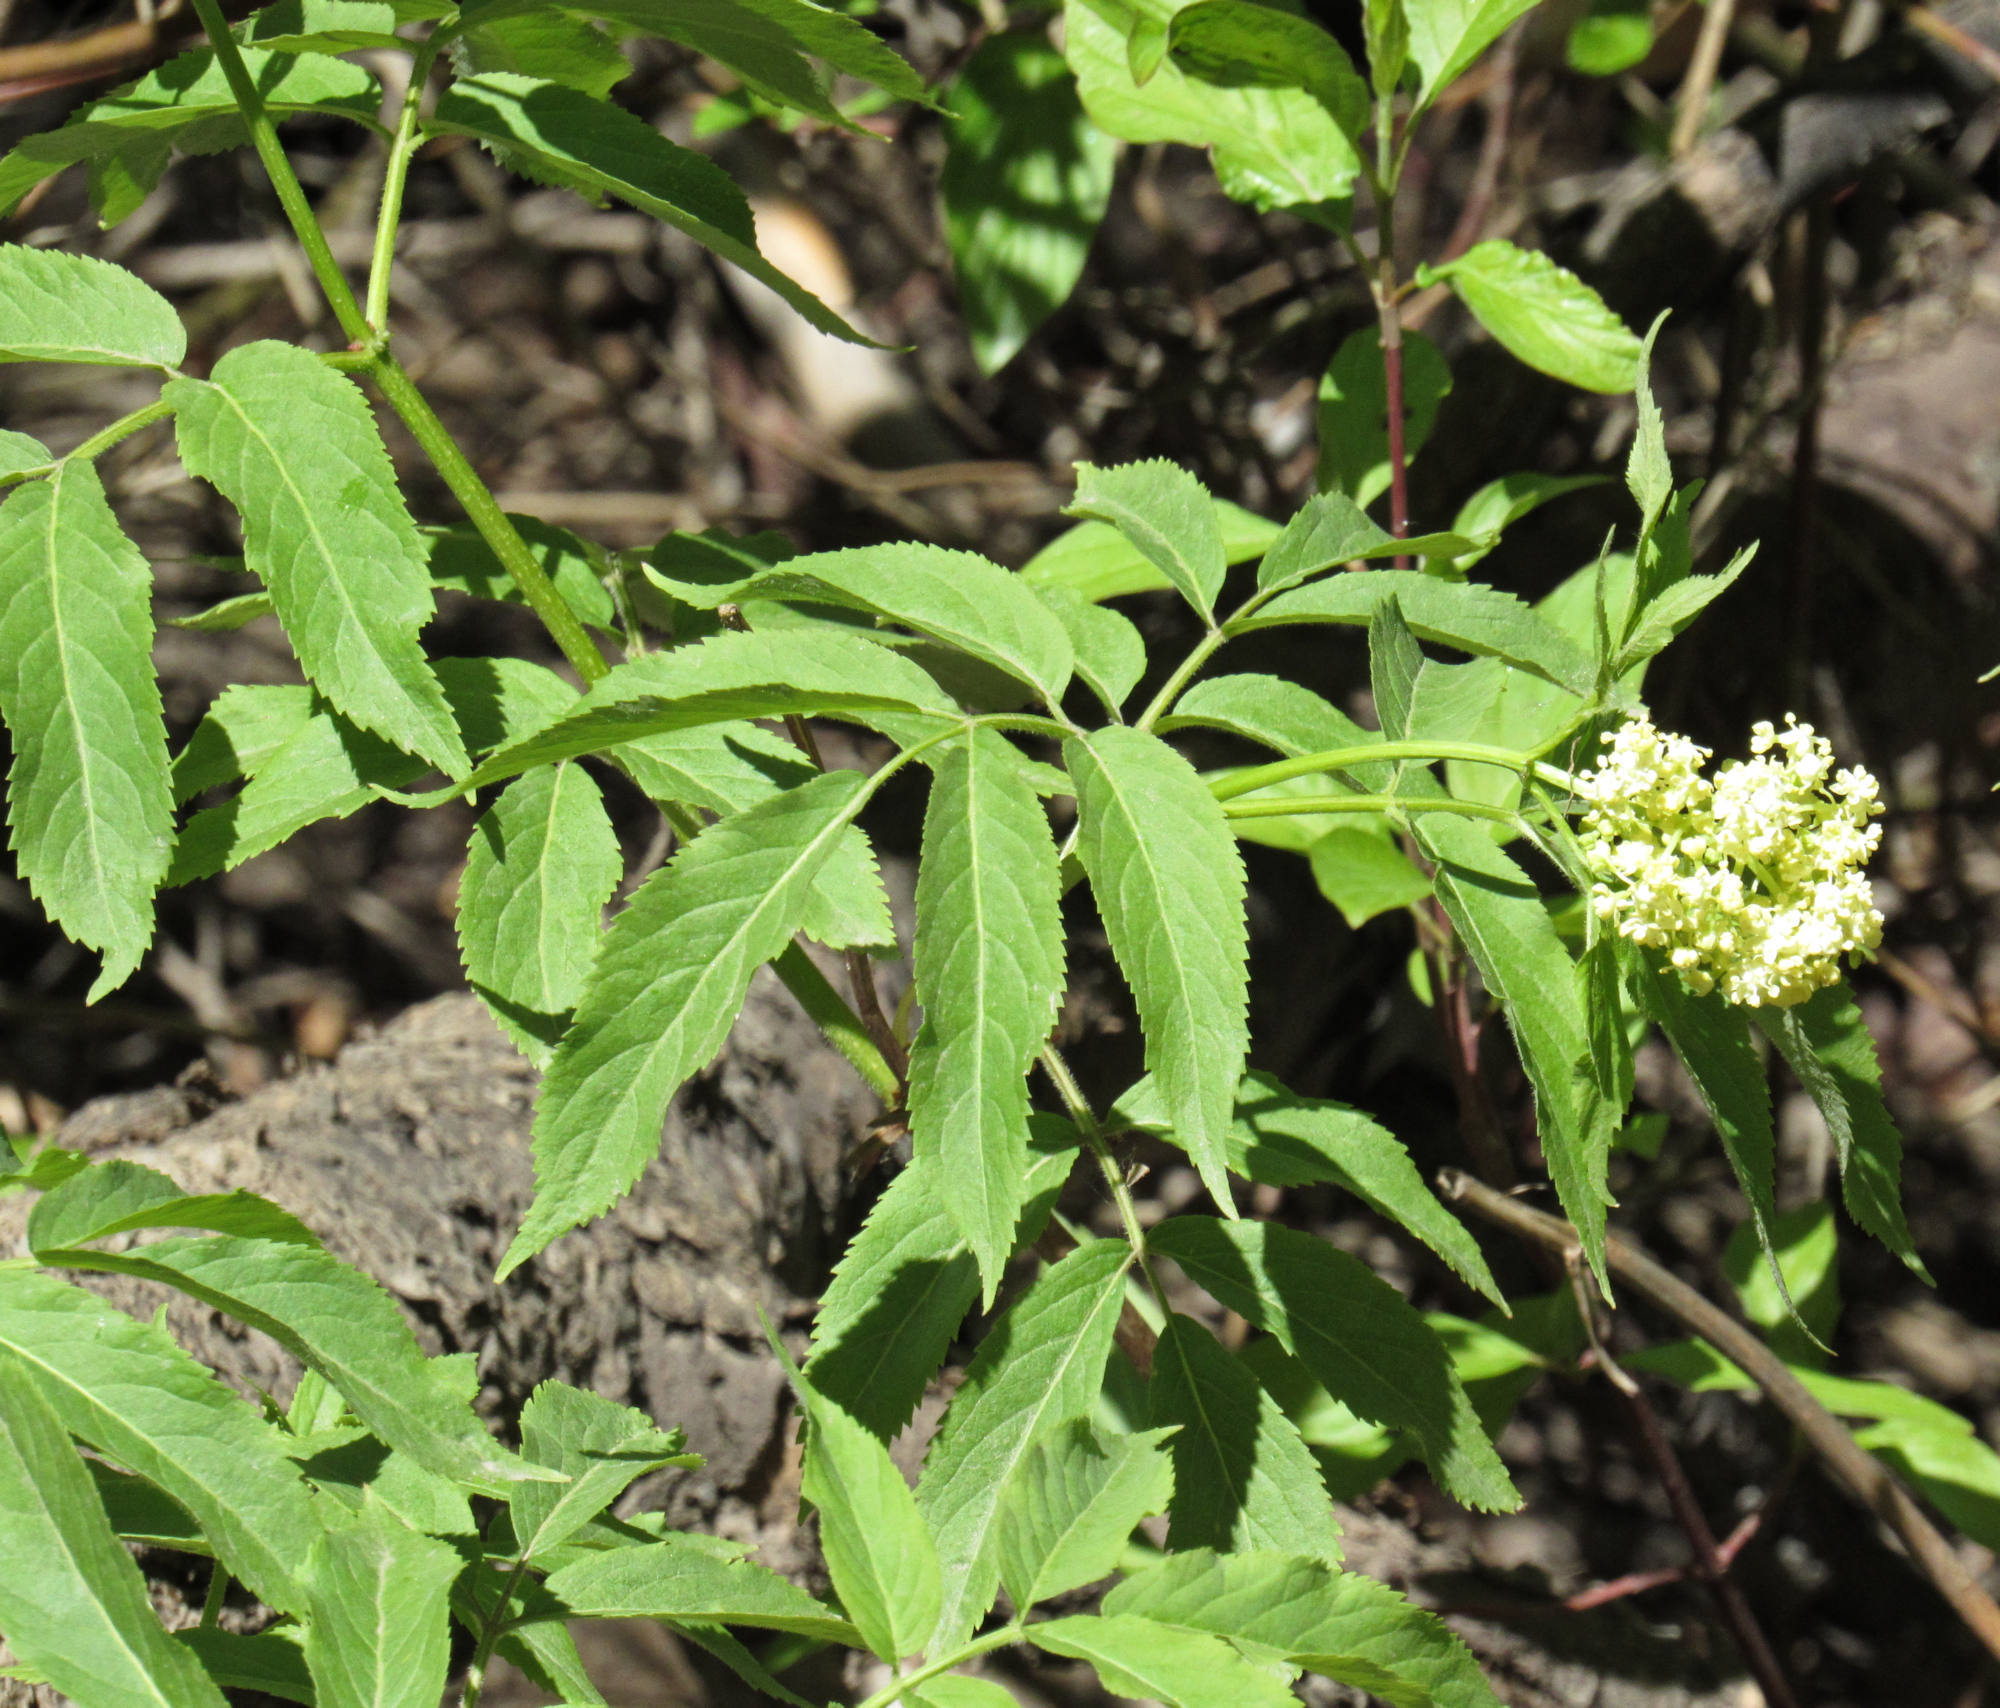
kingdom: Plantae
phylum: Tracheophyta
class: Magnoliopsida
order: Dipsacales
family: Viburnaceae
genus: Sambucus
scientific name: Sambucus racemosa
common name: Red-berried elder
